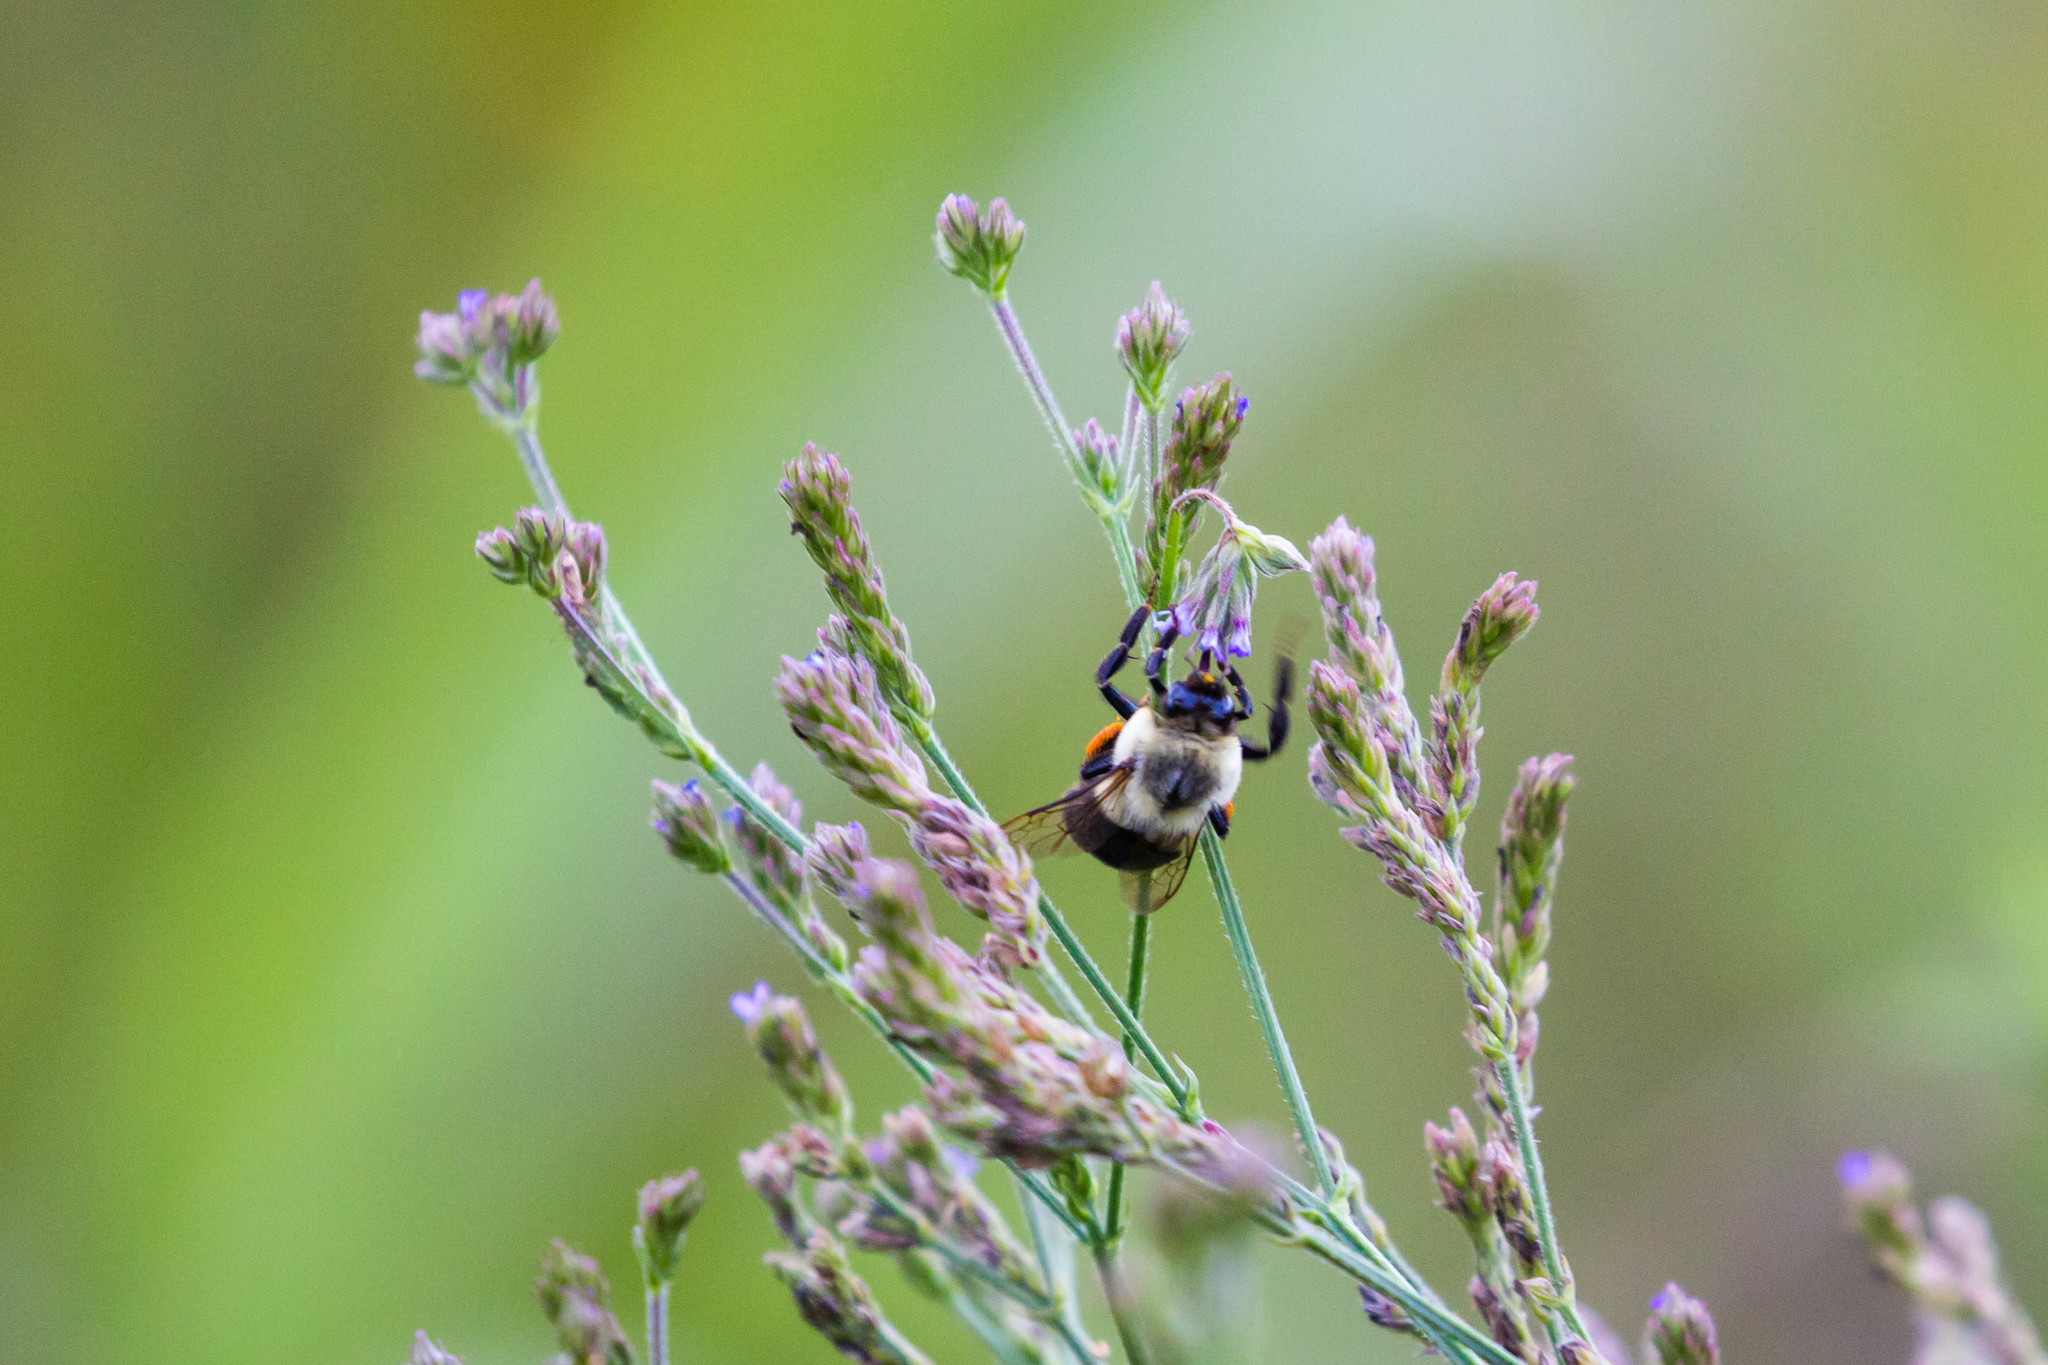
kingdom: Animalia
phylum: Arthropoda
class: Insecta
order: Hymenoptera
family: Apidae
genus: Bombus
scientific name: Bombus impatiens
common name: Common eastern bumble bee
